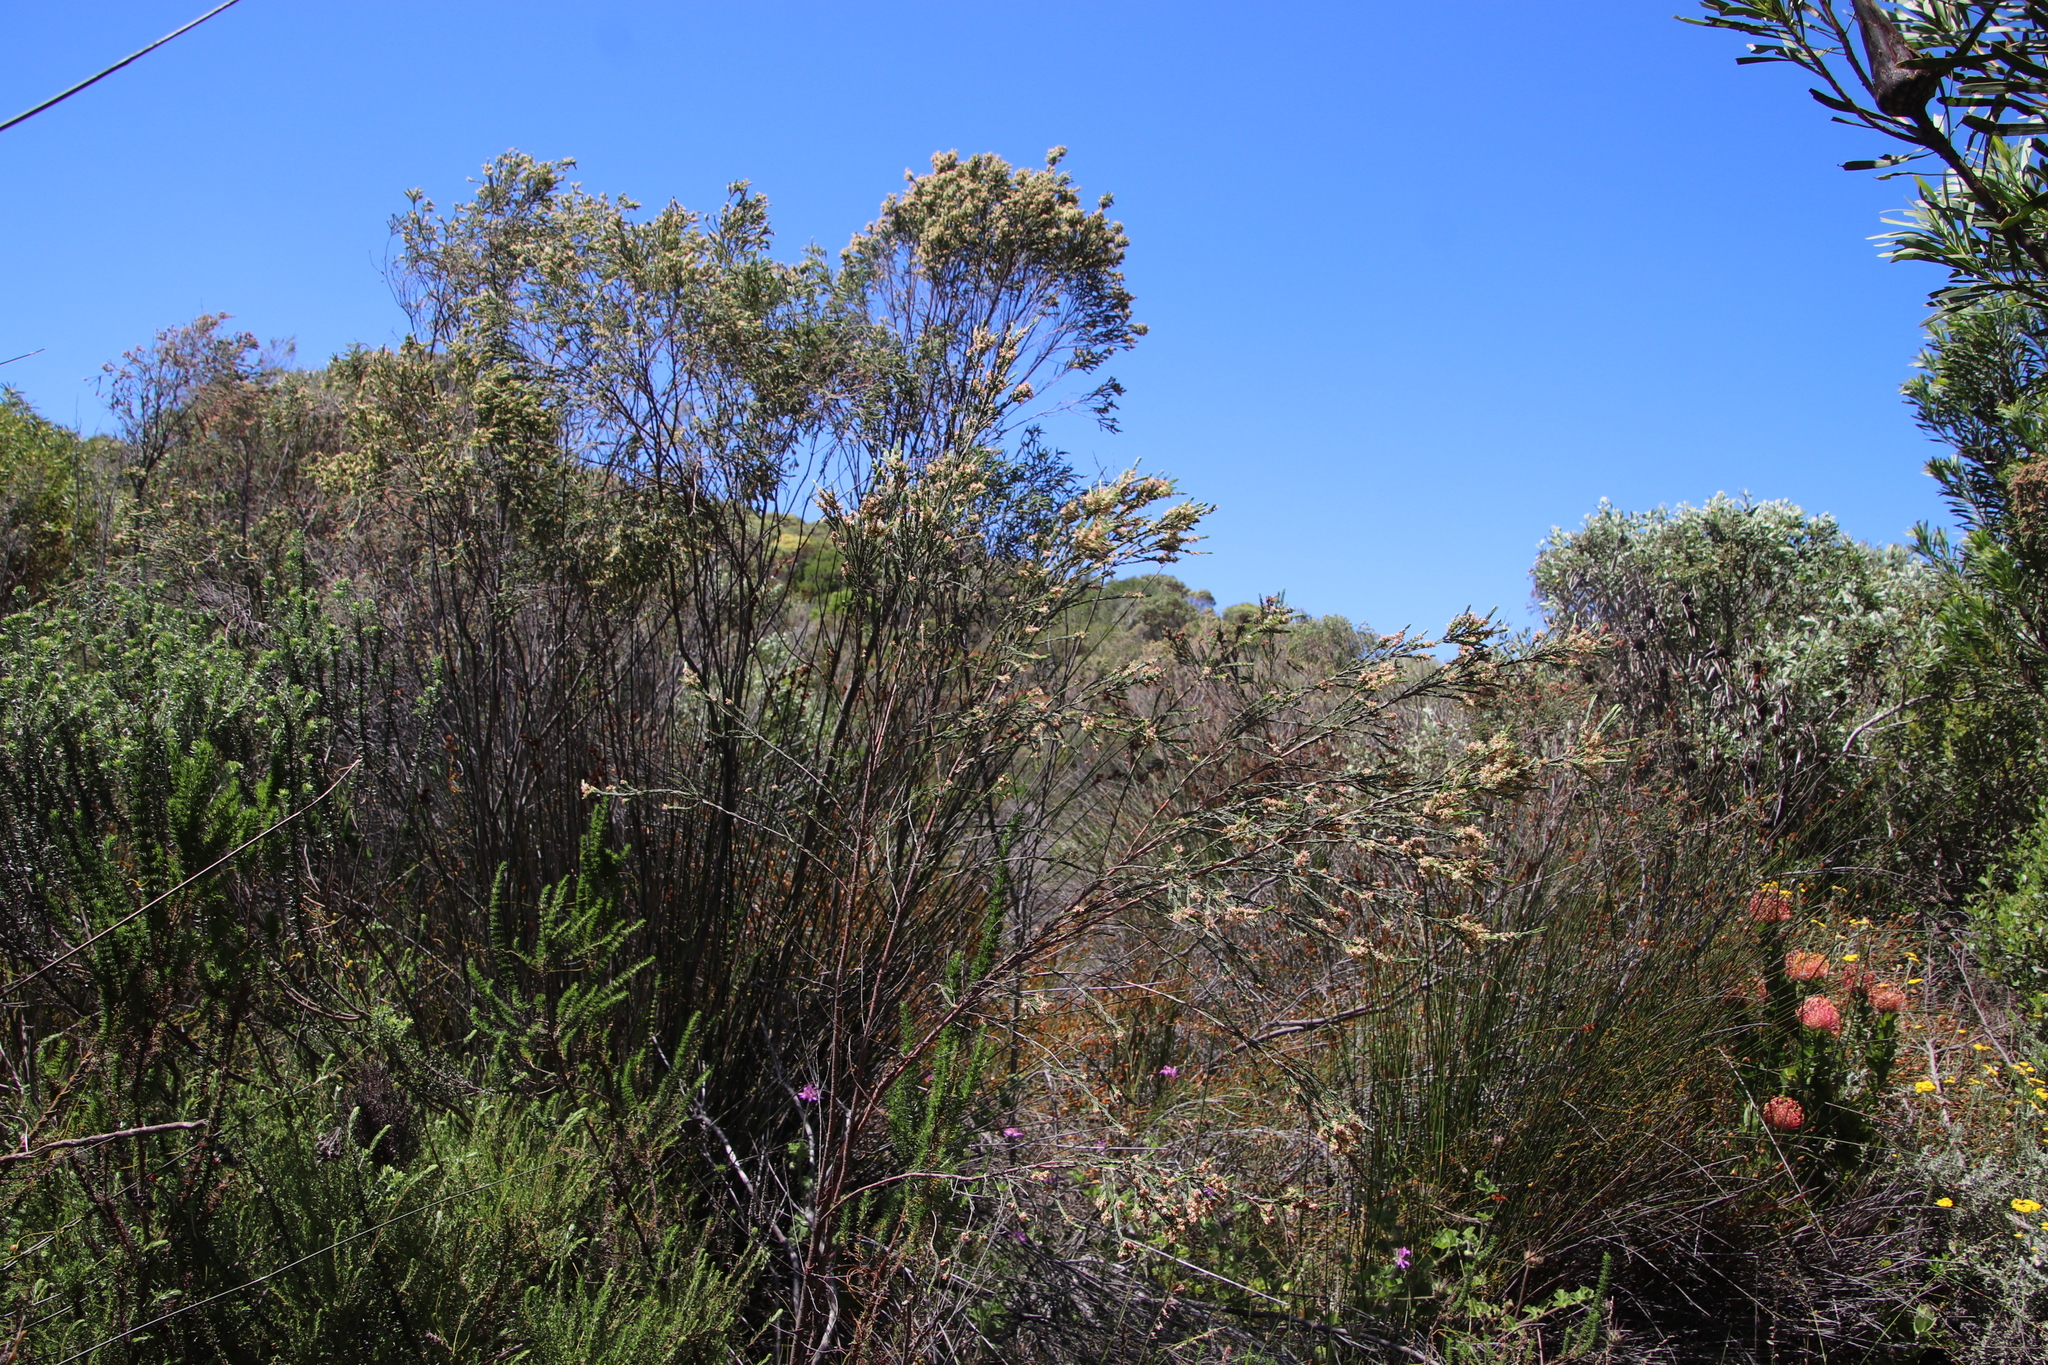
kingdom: Plantae
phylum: Tracheophyta
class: Magnoliopsida
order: Malvales
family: Thymelaeaceae
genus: Passerina
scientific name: Passerina corymbosa
